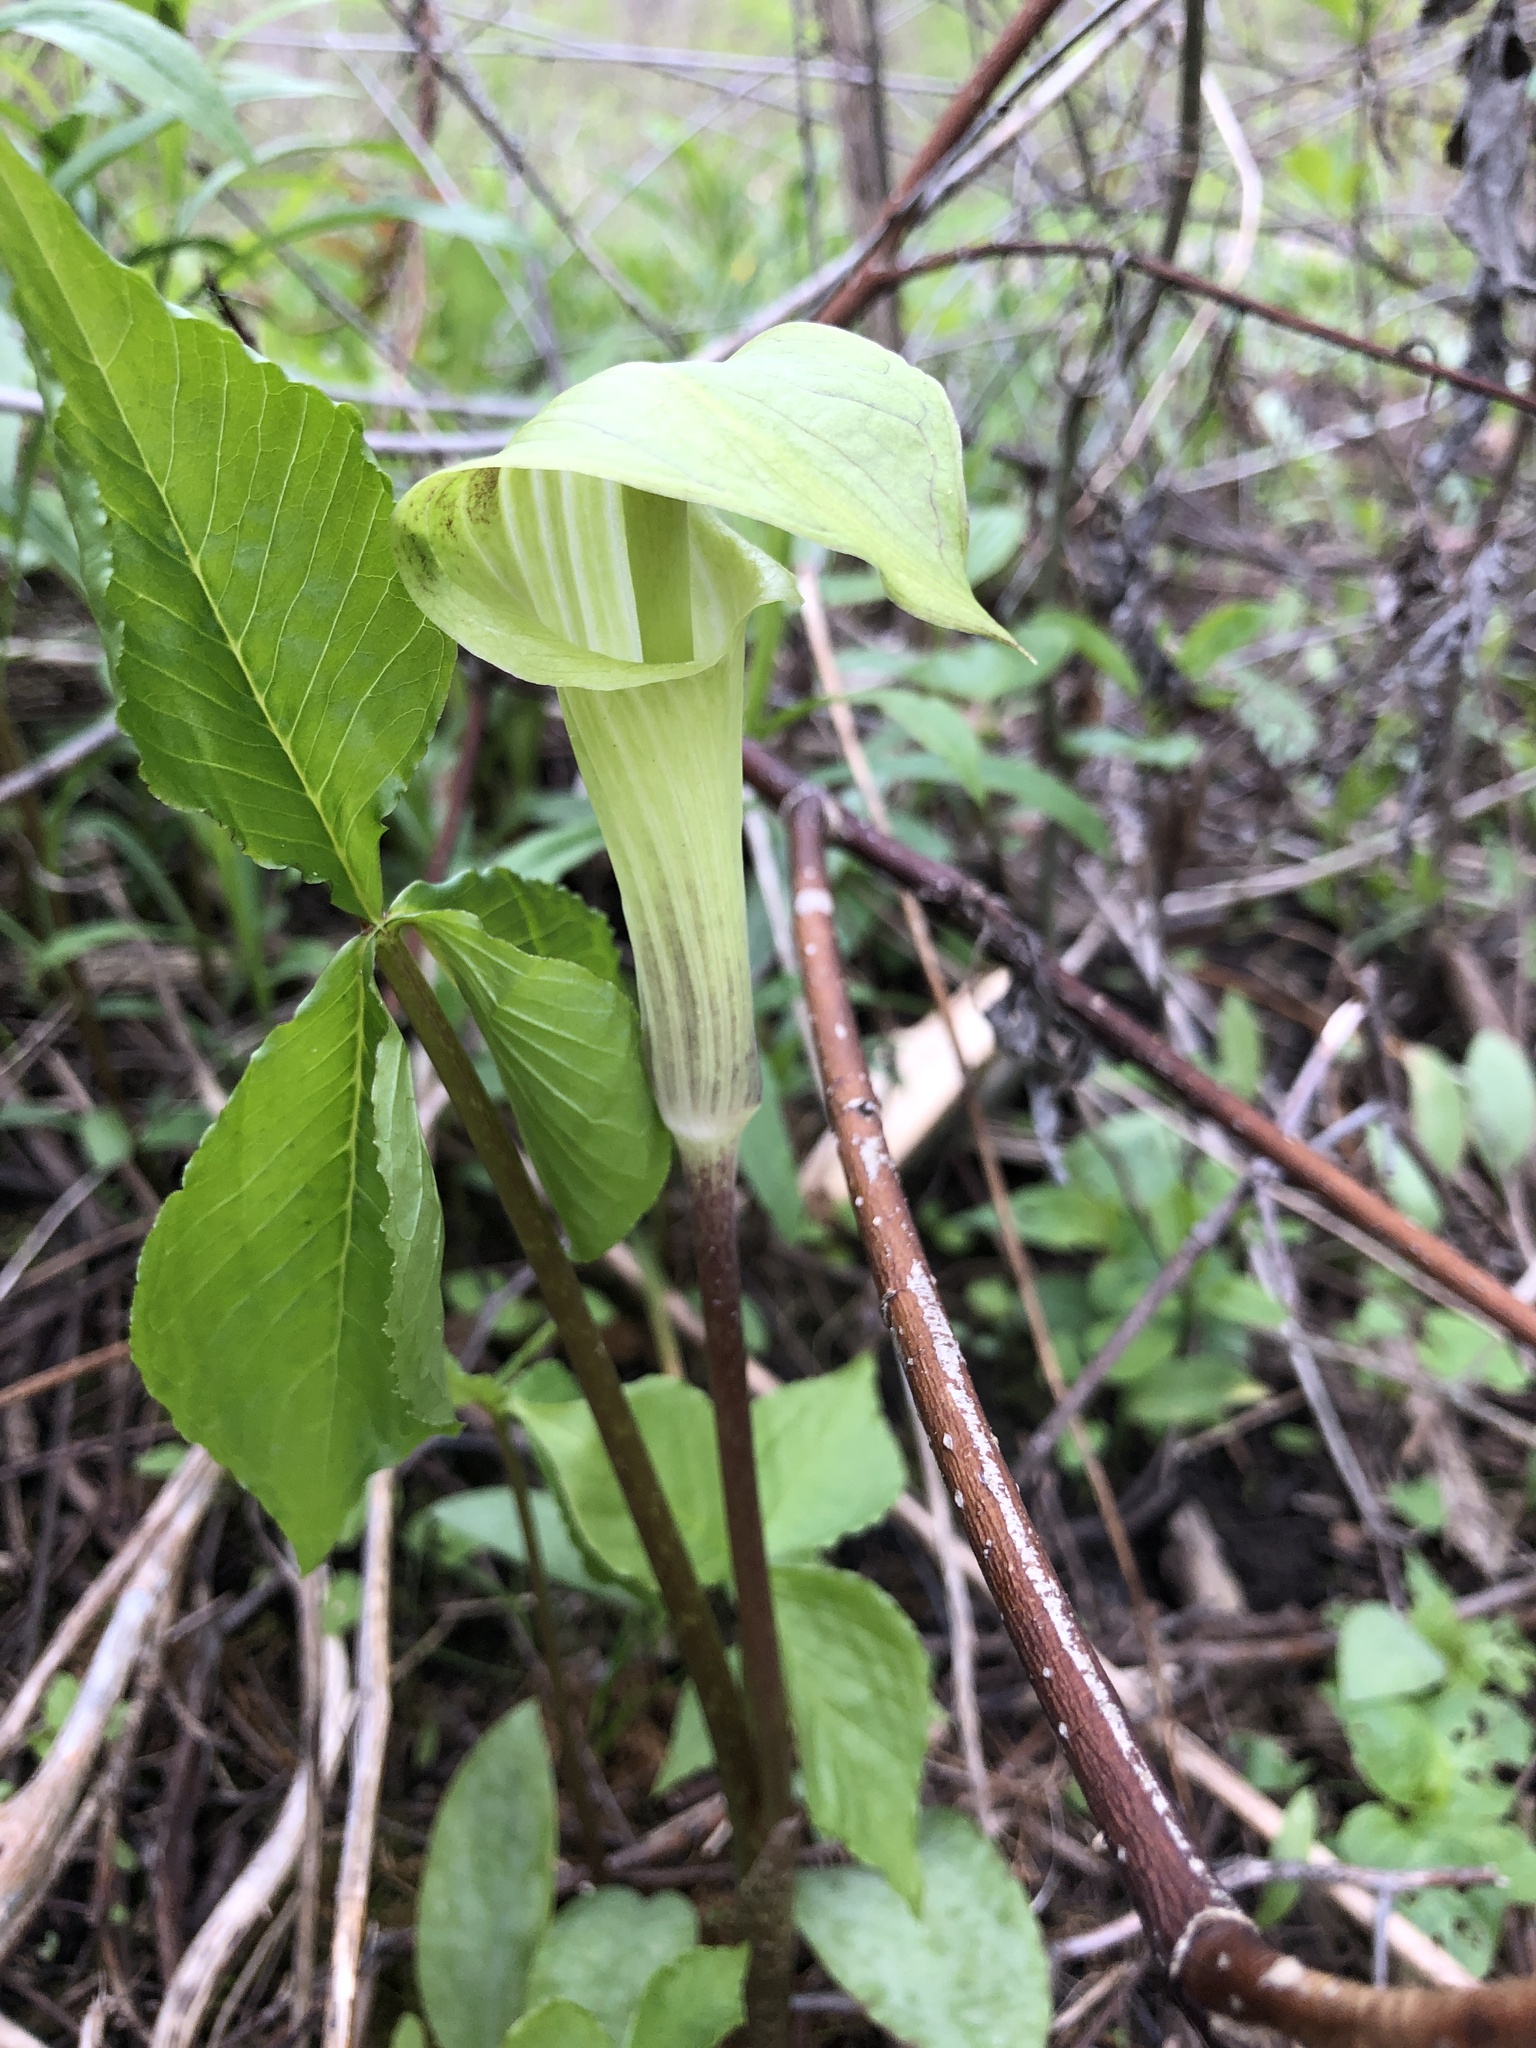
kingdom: Plantae
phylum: Tracheophyta
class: Liliopsida
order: Alismatales
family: Araceae
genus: Arisaema
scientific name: Arisaema triphyllum
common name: Jack-in-the-pulpit
